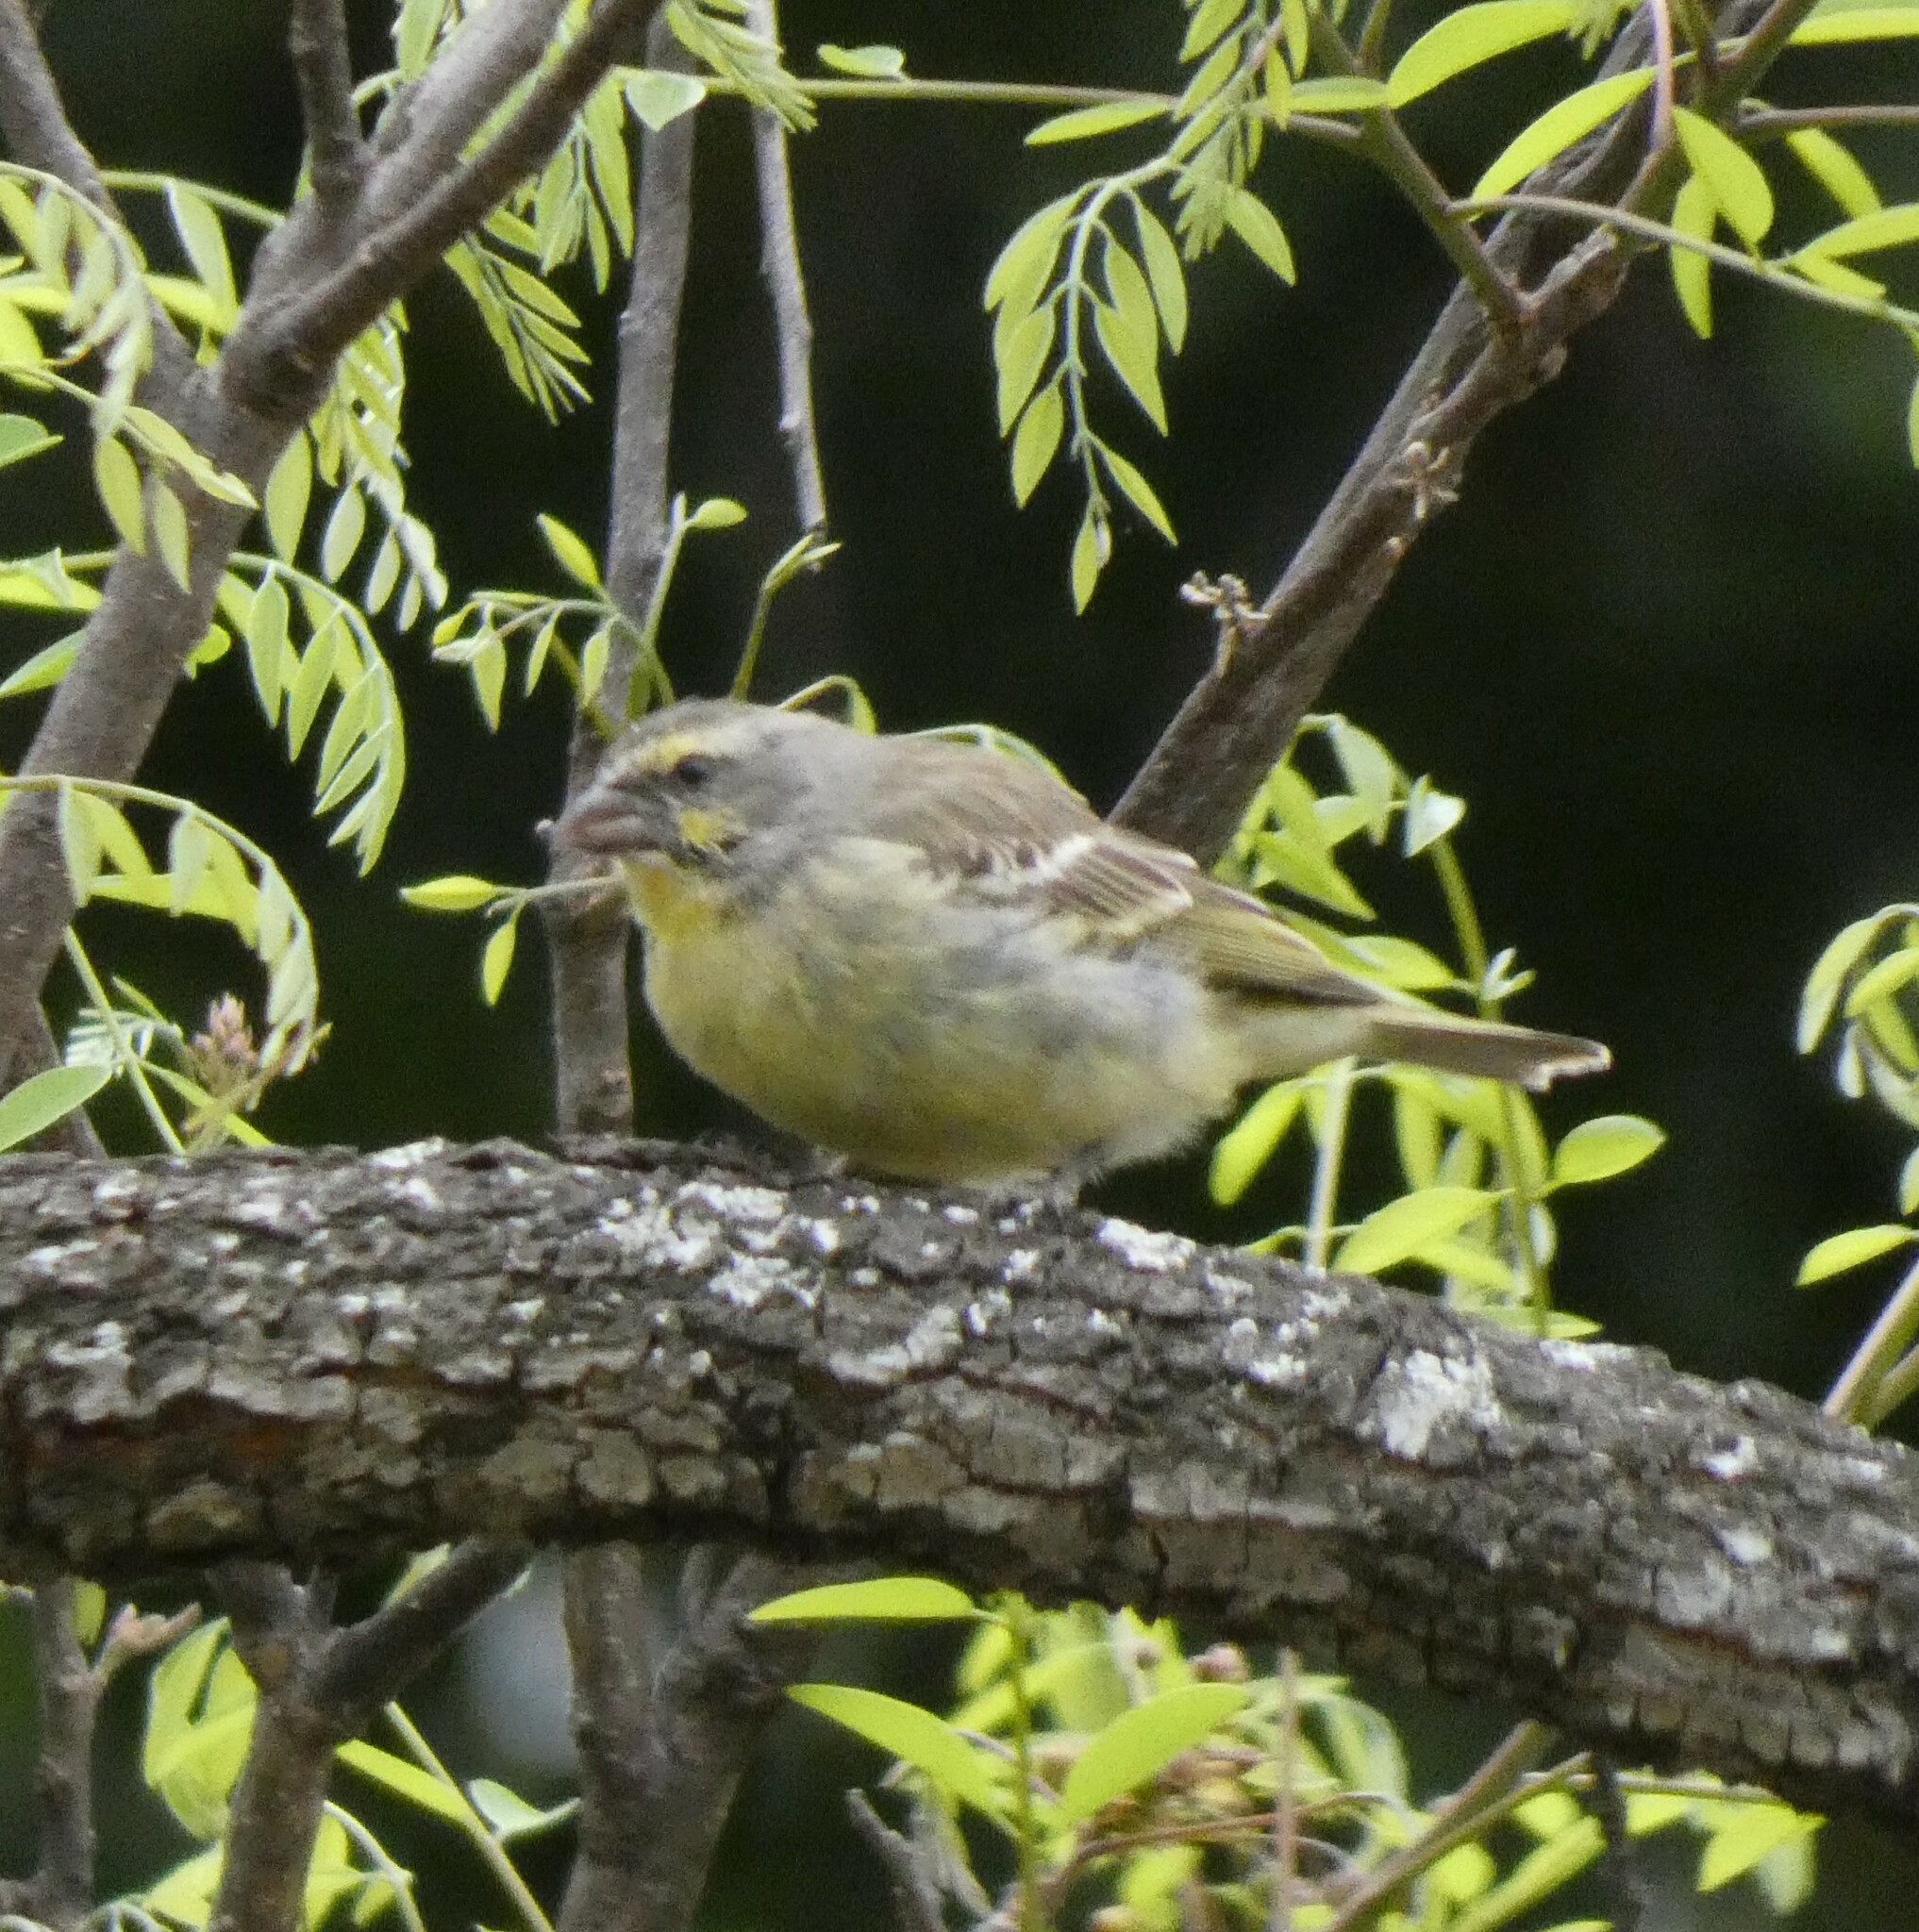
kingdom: Animalia
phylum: Chordata
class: Aves
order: Passeriformes
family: Fringillidae
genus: Crithagra
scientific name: Crithagra mozambica
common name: Yellow-fronted canary
